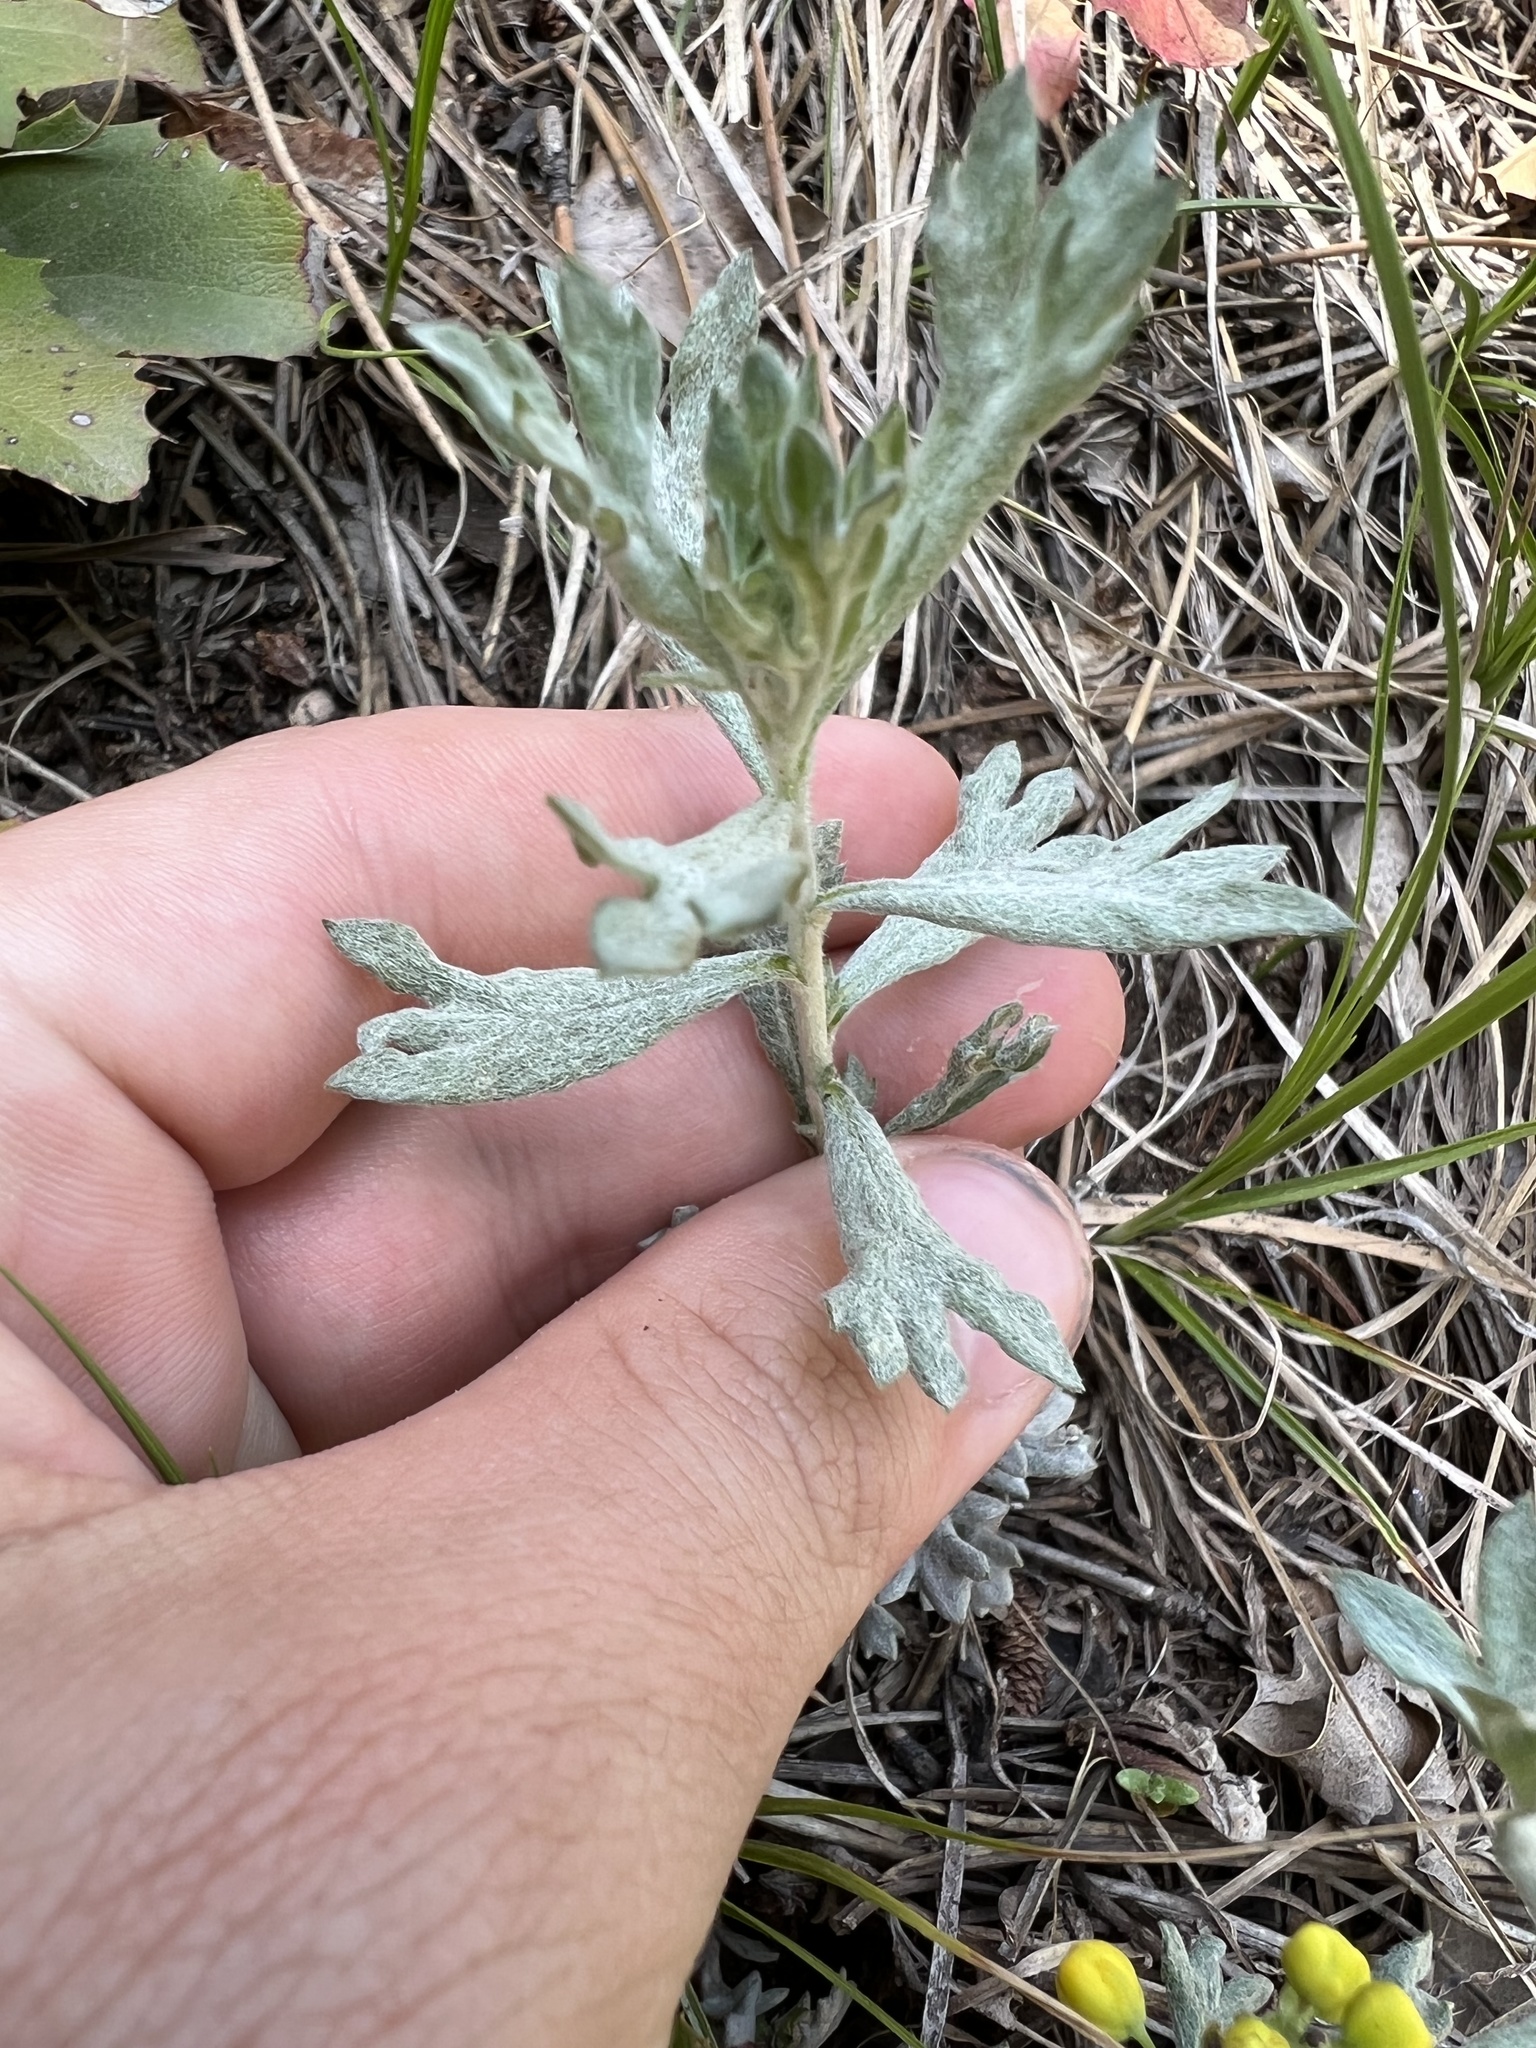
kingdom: Plantae
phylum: Tracheophyta
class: Magnoliopsida
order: Asterales
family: Asteraceae
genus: Artemisia
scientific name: Artemisia ludoviciana
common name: Western mugwort
